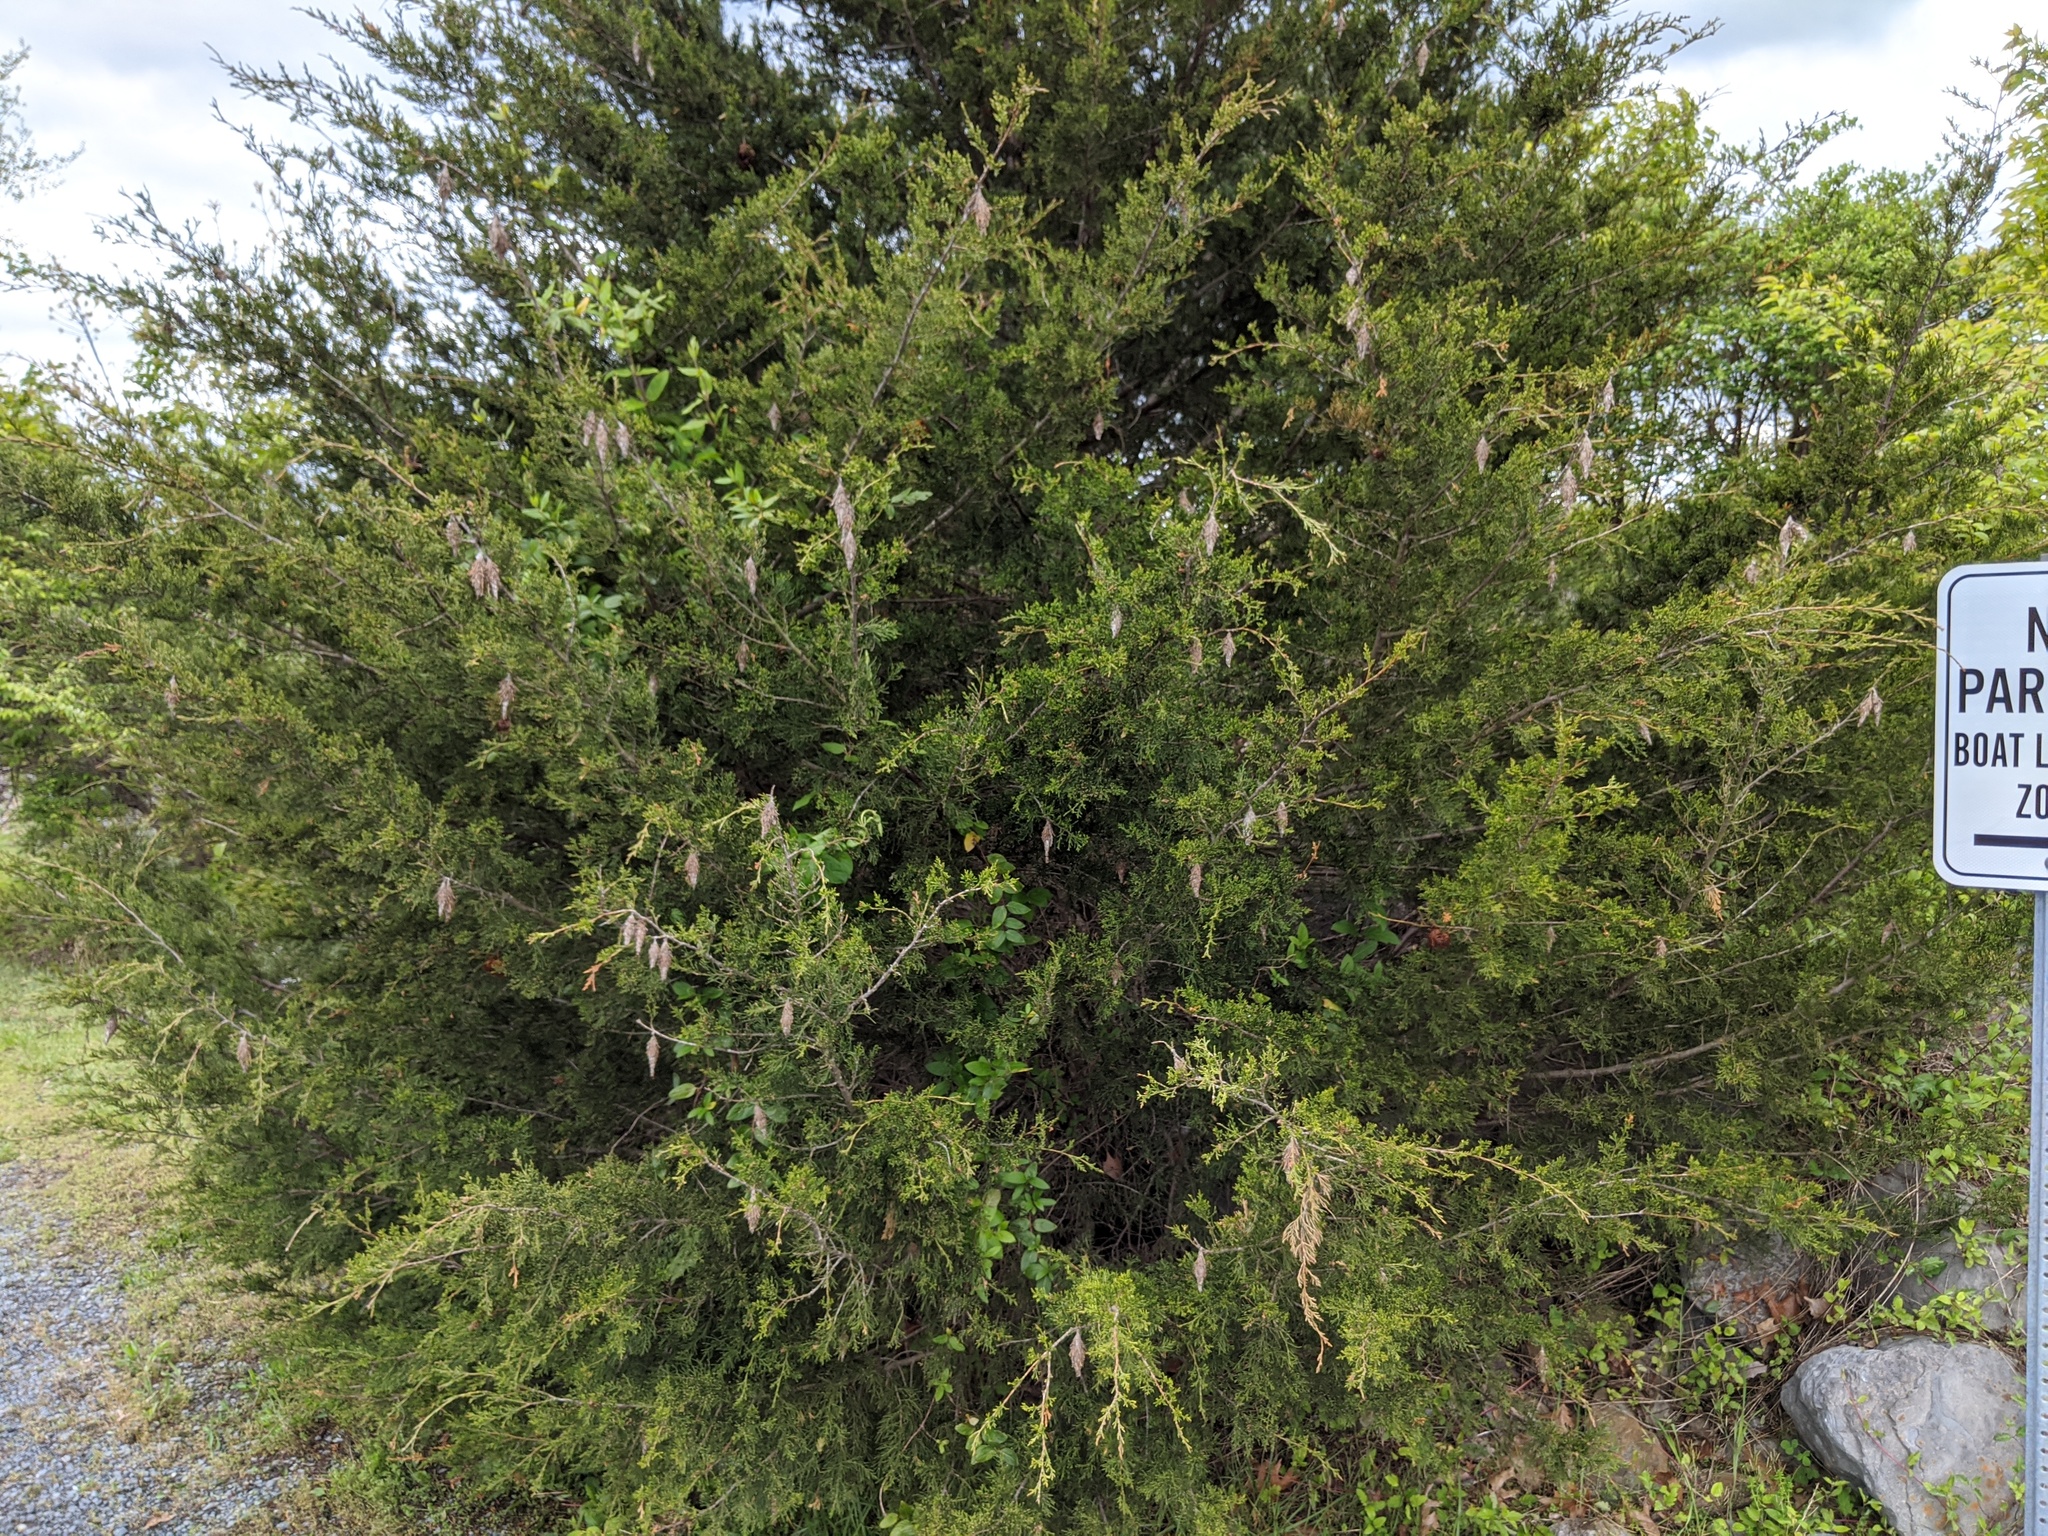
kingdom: Animalia
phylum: Arthropoda
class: Insecta
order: Lepidoptera
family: Psychidae
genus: Thyridopteryx
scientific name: Thyridopteryx ephemeraeformis
